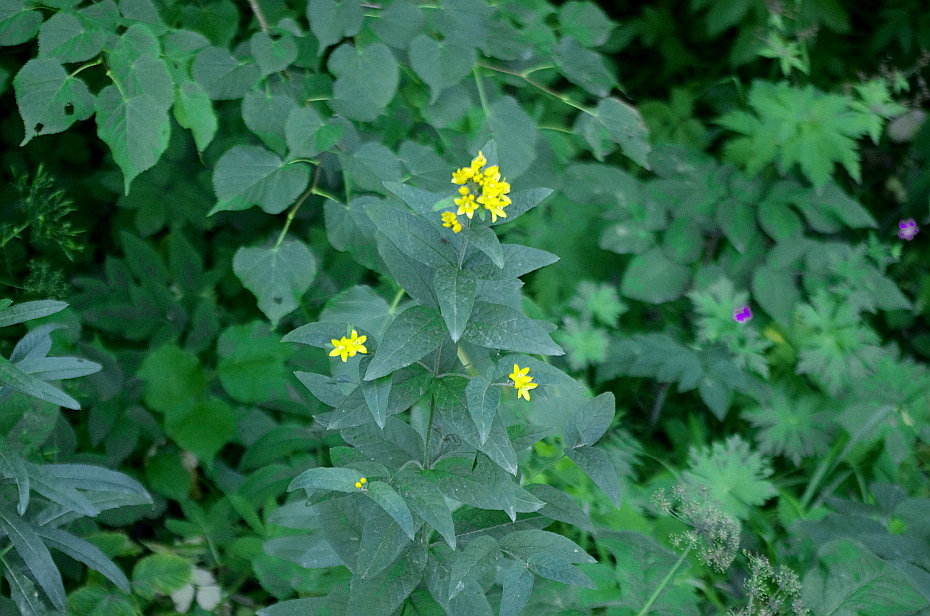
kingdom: Plantae
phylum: Tracheophyta
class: Magnoliopsida
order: Asterales
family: Asteraceae
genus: Solidago
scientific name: Solidago virgaurea
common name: Goldenrod
